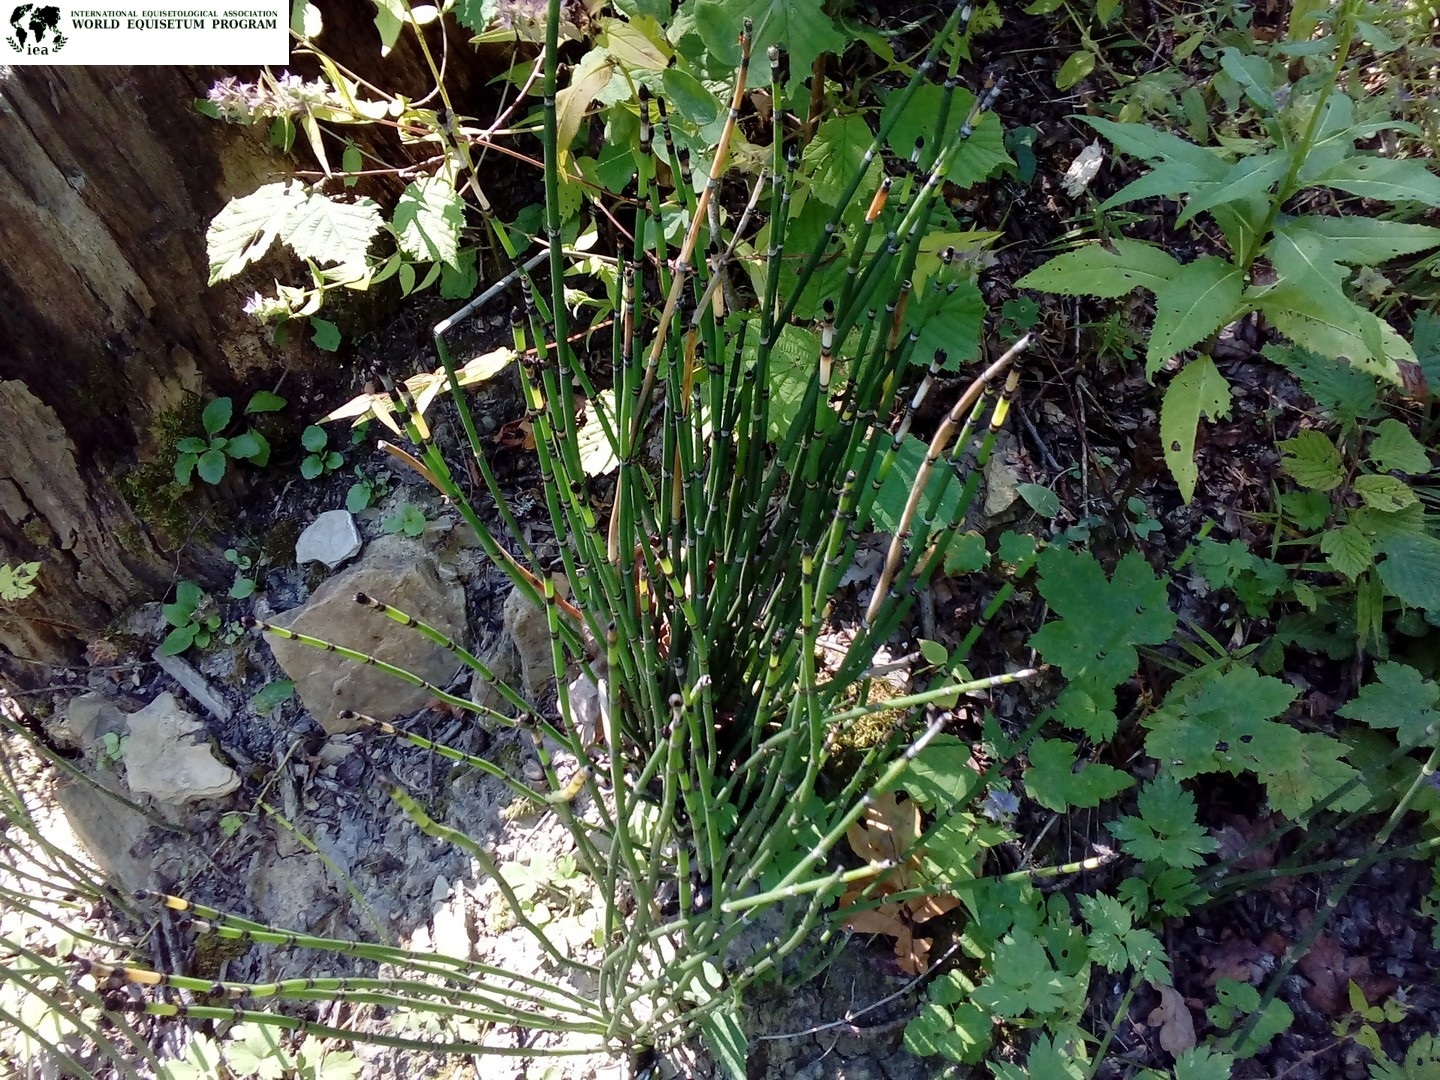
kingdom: Plantae
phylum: Tracheophyta
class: Polypodiopsida
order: Equisetales
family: Equisetaceae
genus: Equisetum
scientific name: Equisetum hyemale
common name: Rough horsetail
